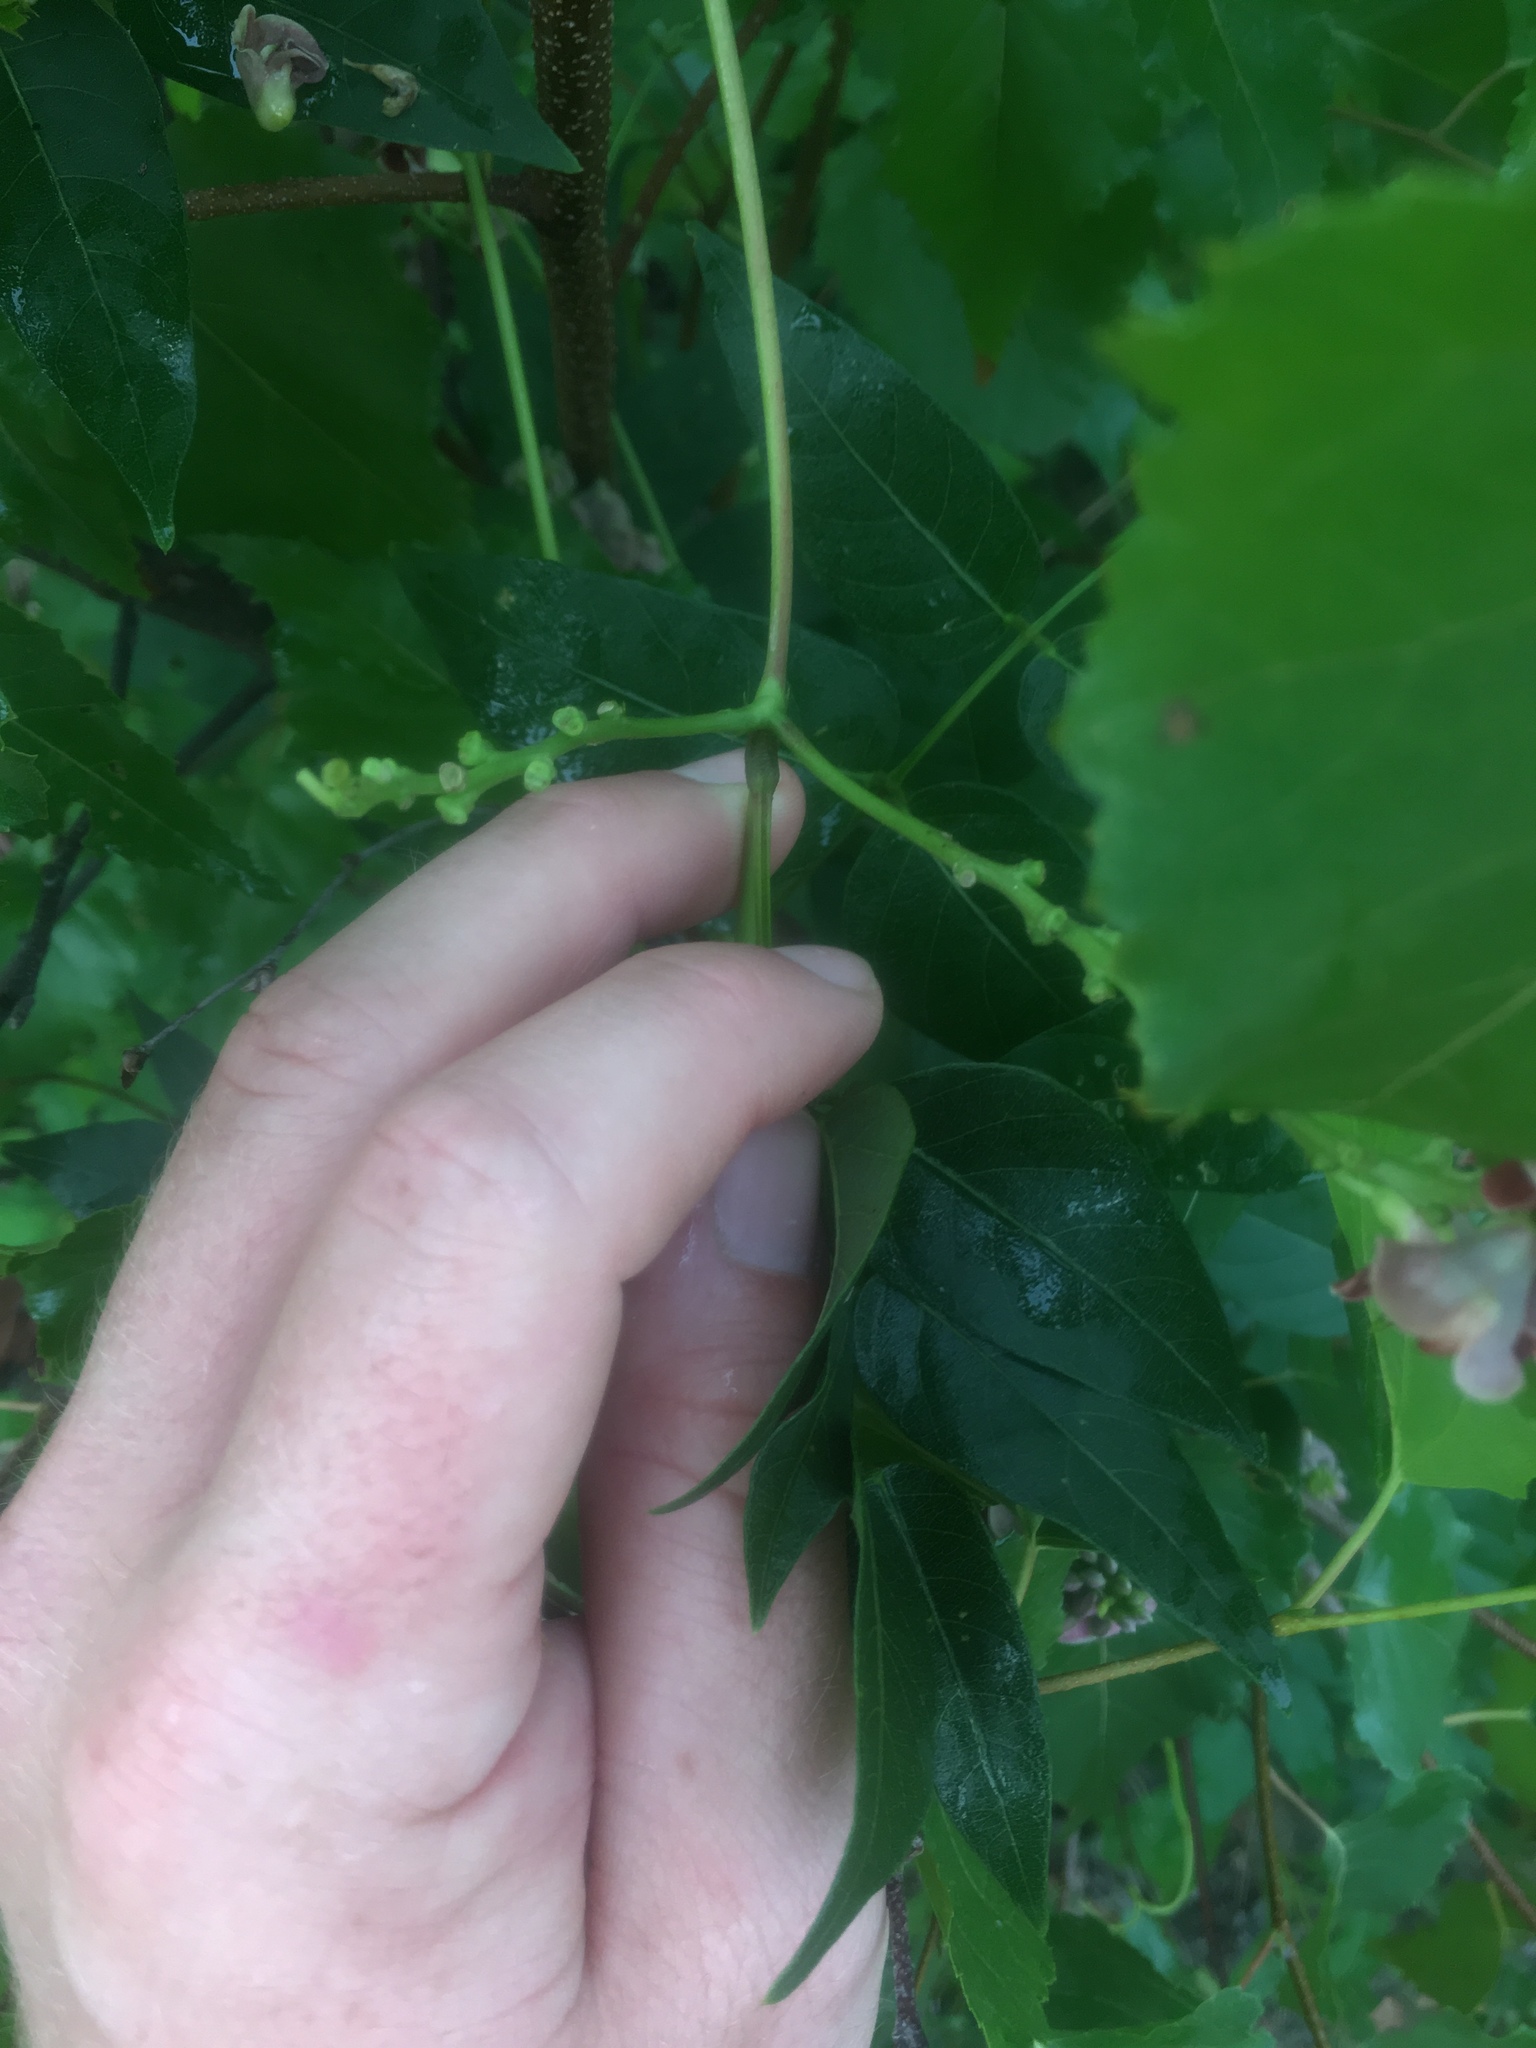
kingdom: Plantae
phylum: Tracheophyta
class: Magnoliopsida
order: Fabales
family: Fabaceae
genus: Apios
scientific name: Apios americana
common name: American potato-bean
